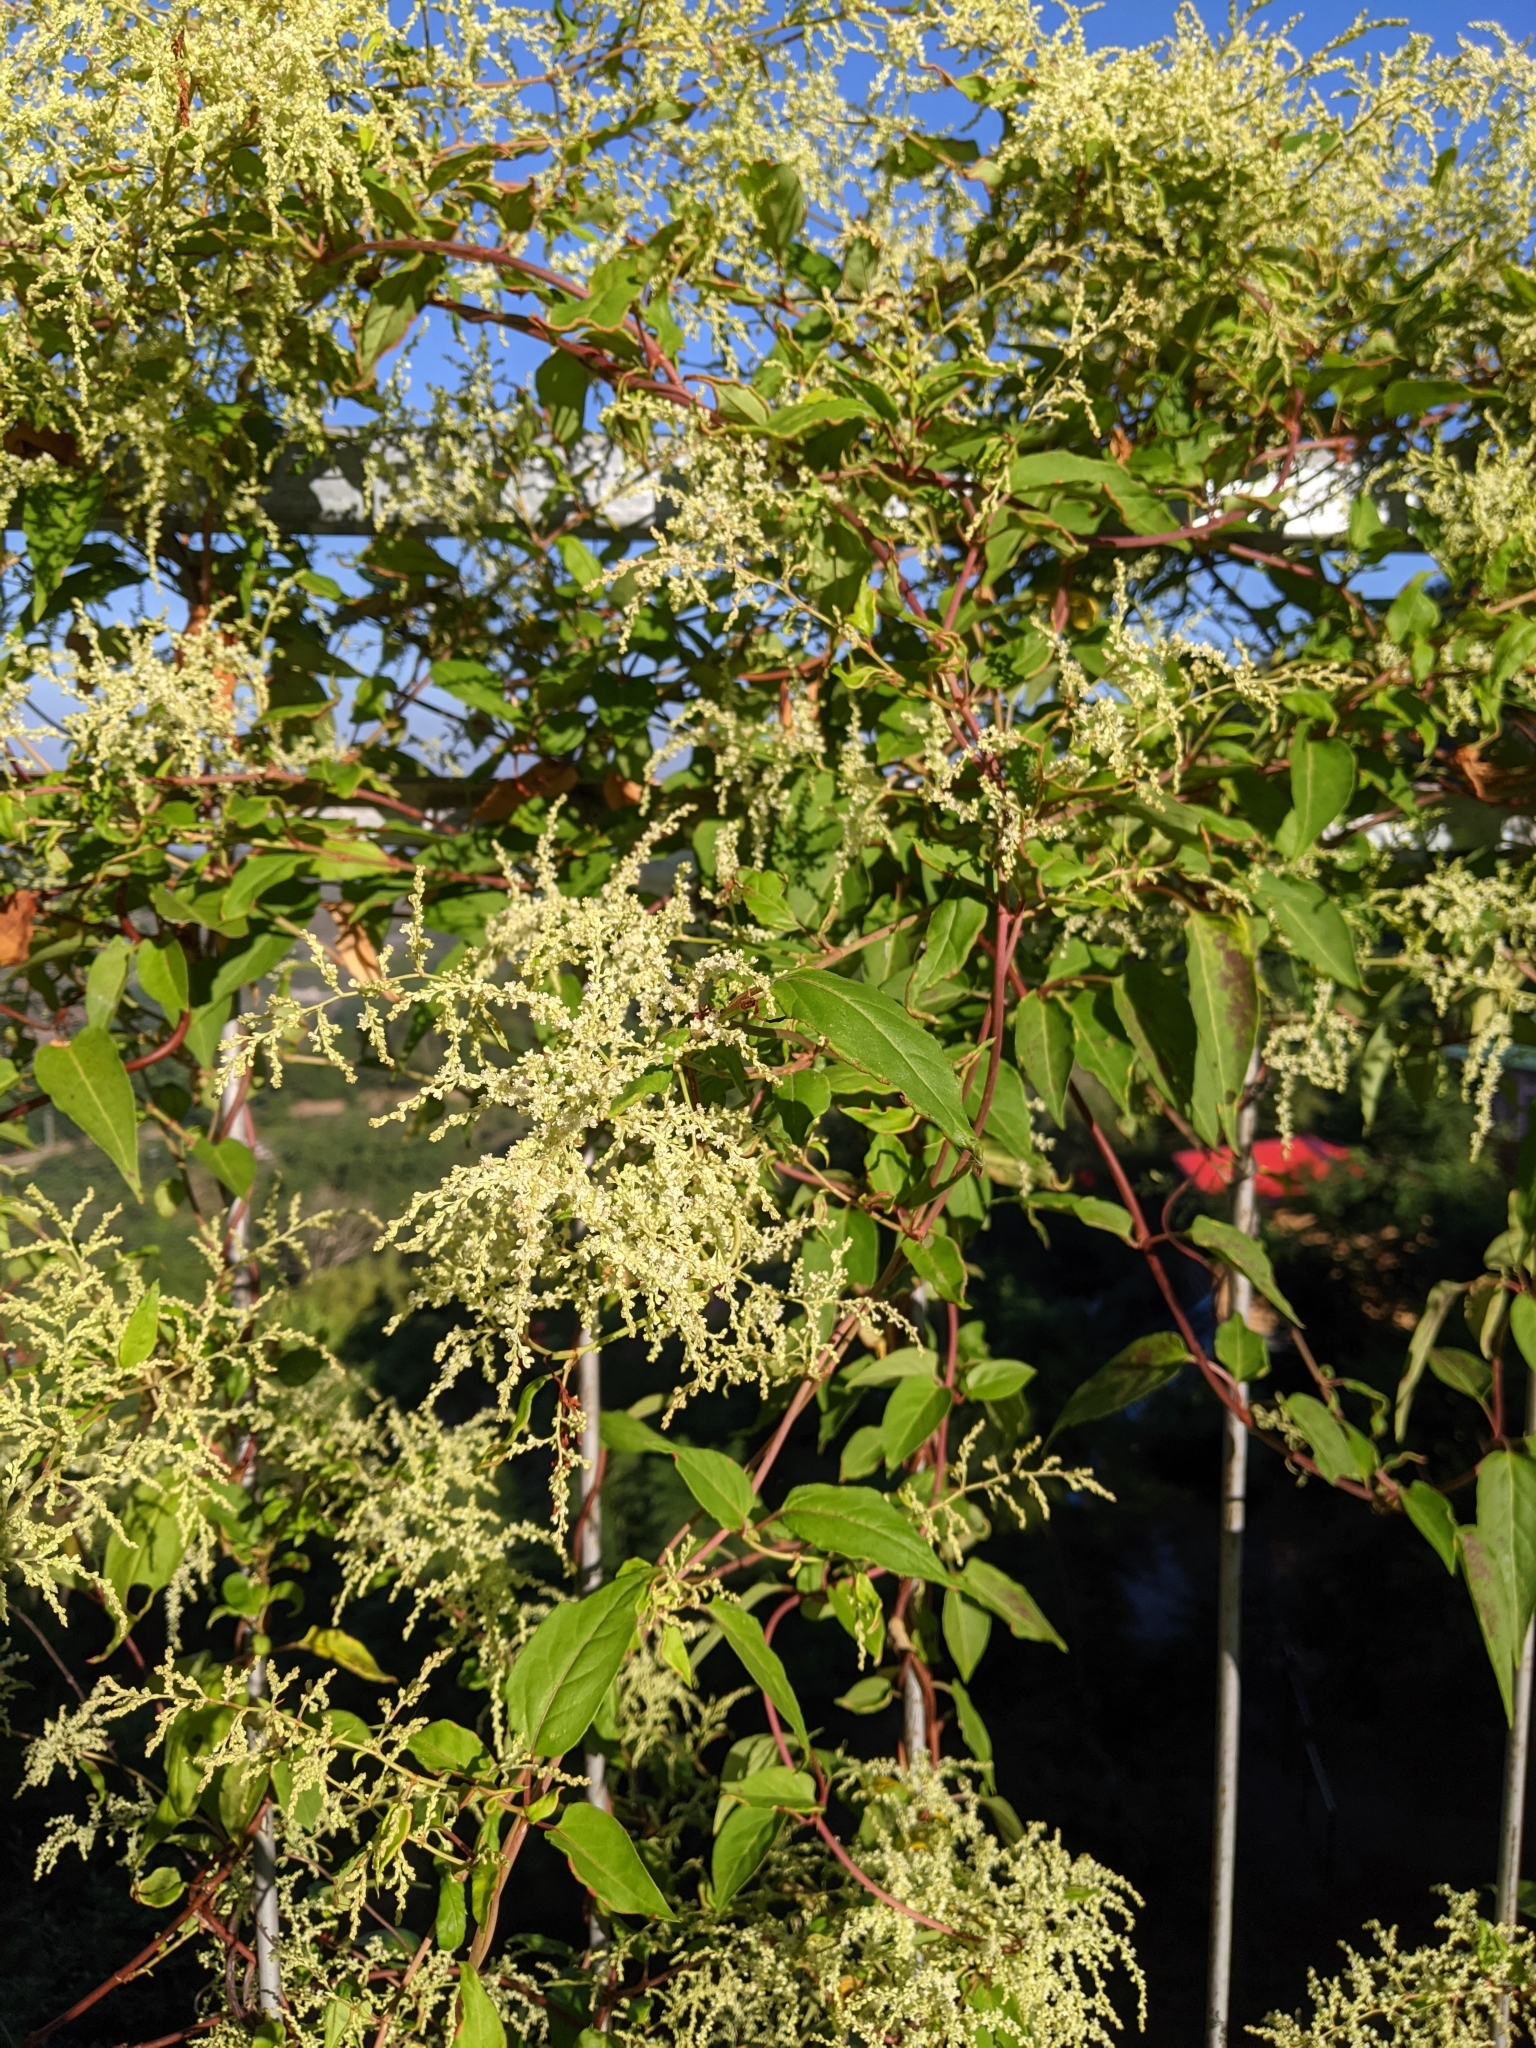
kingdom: Plantae
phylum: Tracheophyta
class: Magnoliopsida
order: Caryophyllales
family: Polygonaceae
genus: Reynoutria
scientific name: Reynoutria multiflora
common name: Chinese fleeceflower
